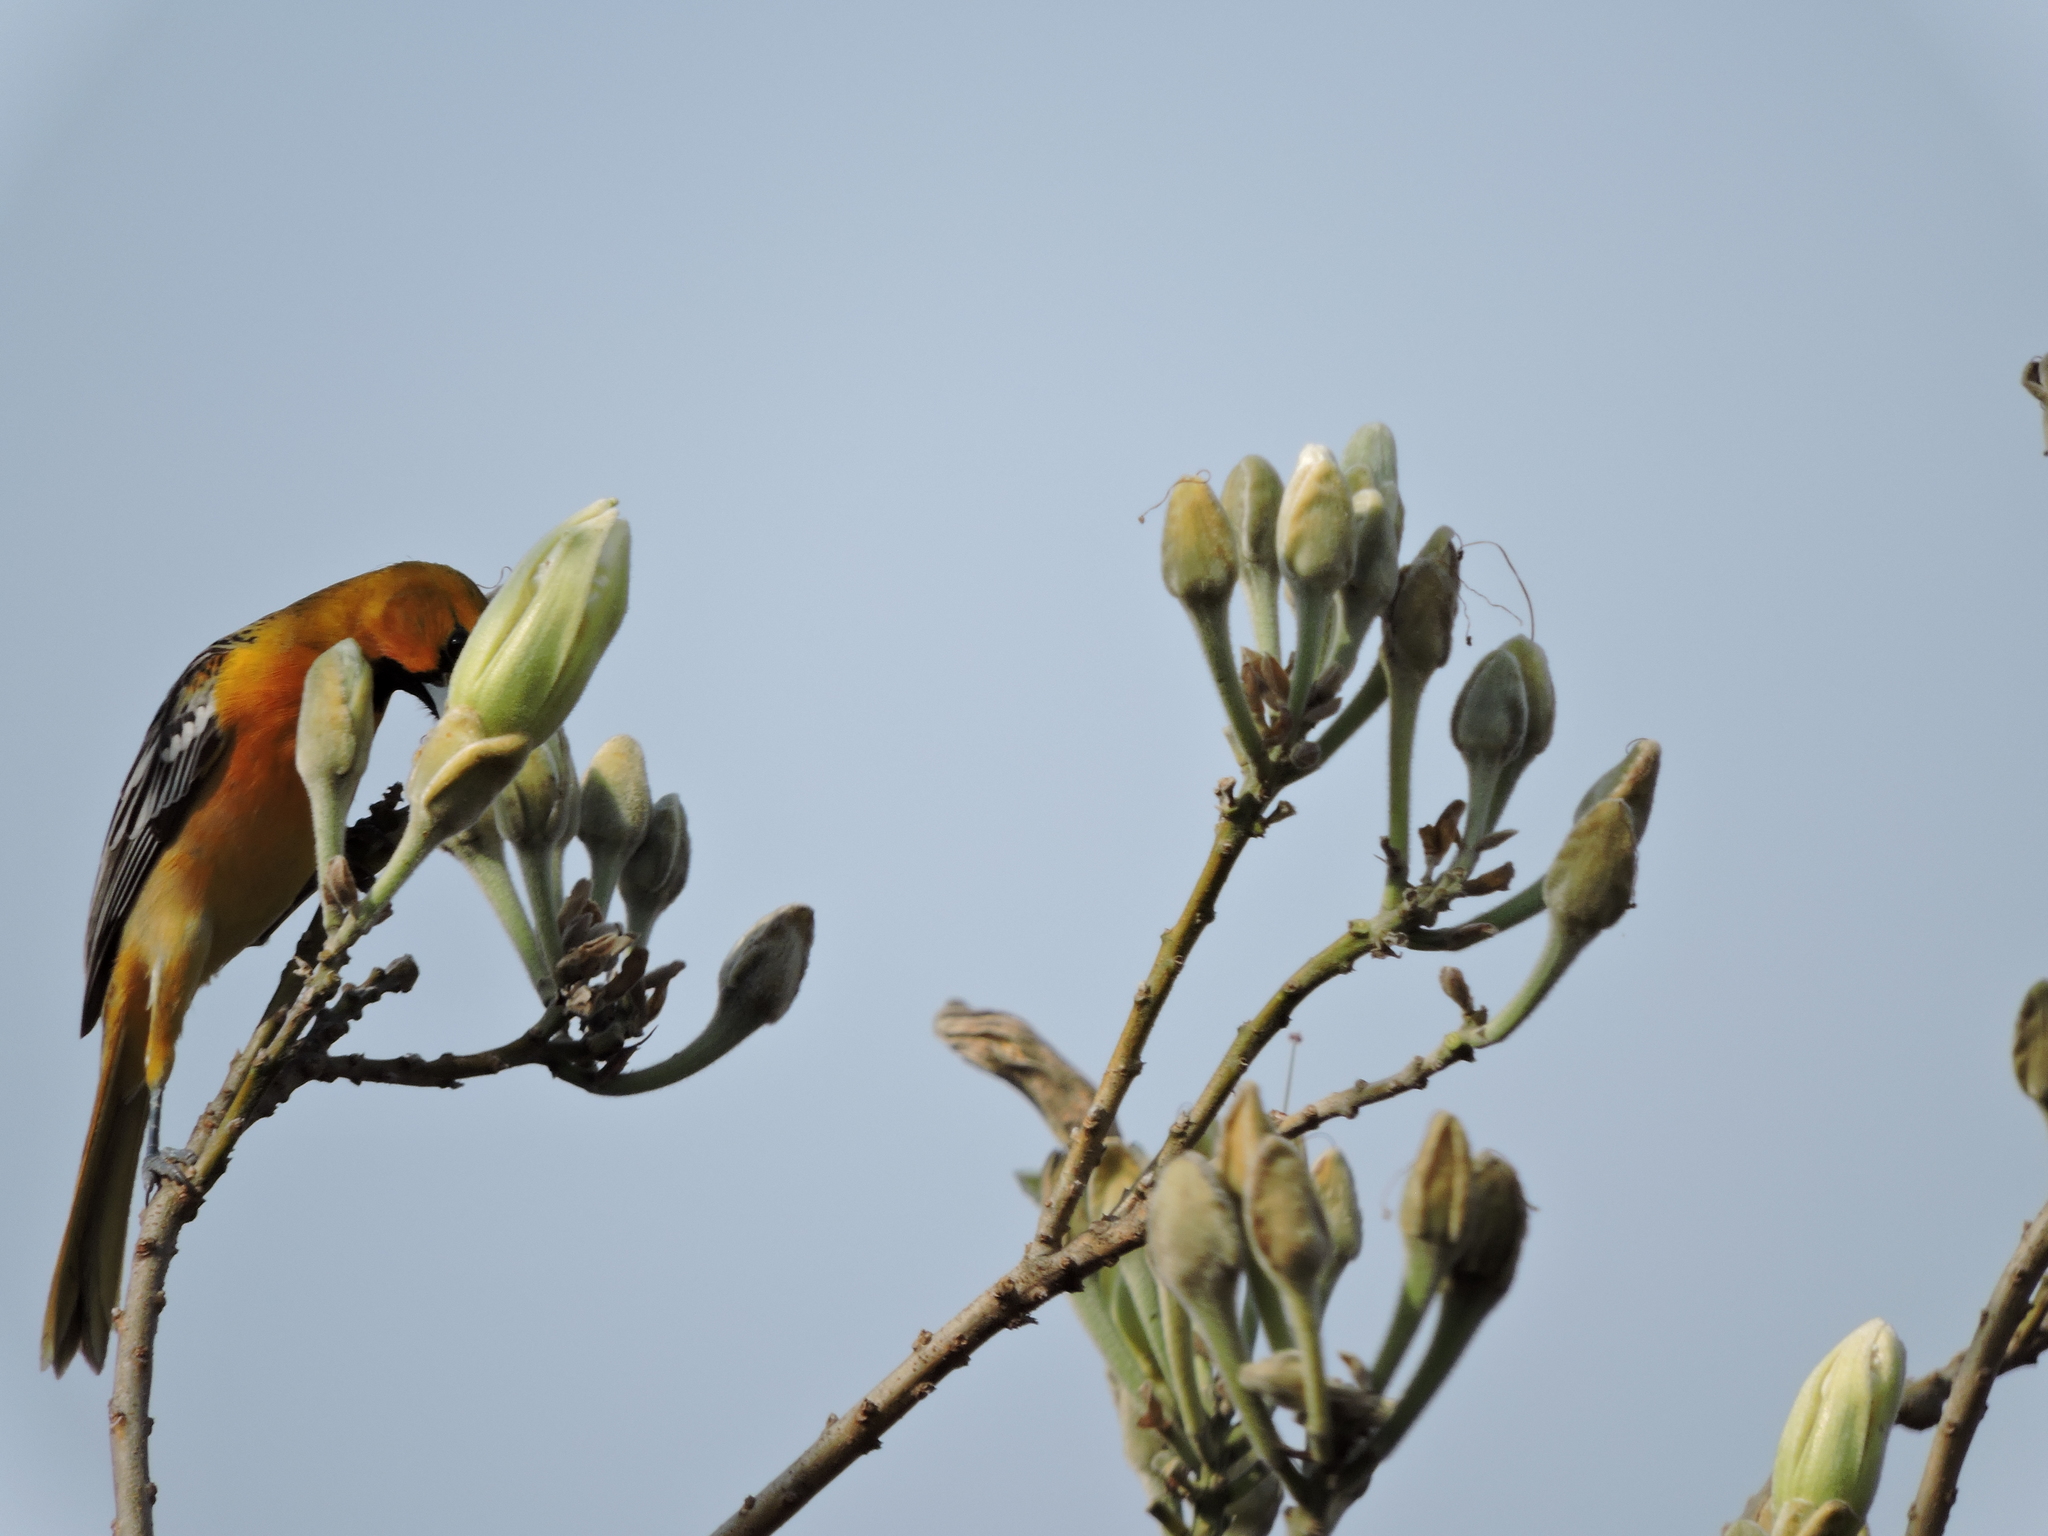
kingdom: Animalia
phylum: Chordata
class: Aves
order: Passeriformes
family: Icteridae
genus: Icterus
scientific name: Icterus pustulatus
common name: Streak-backed oriole
